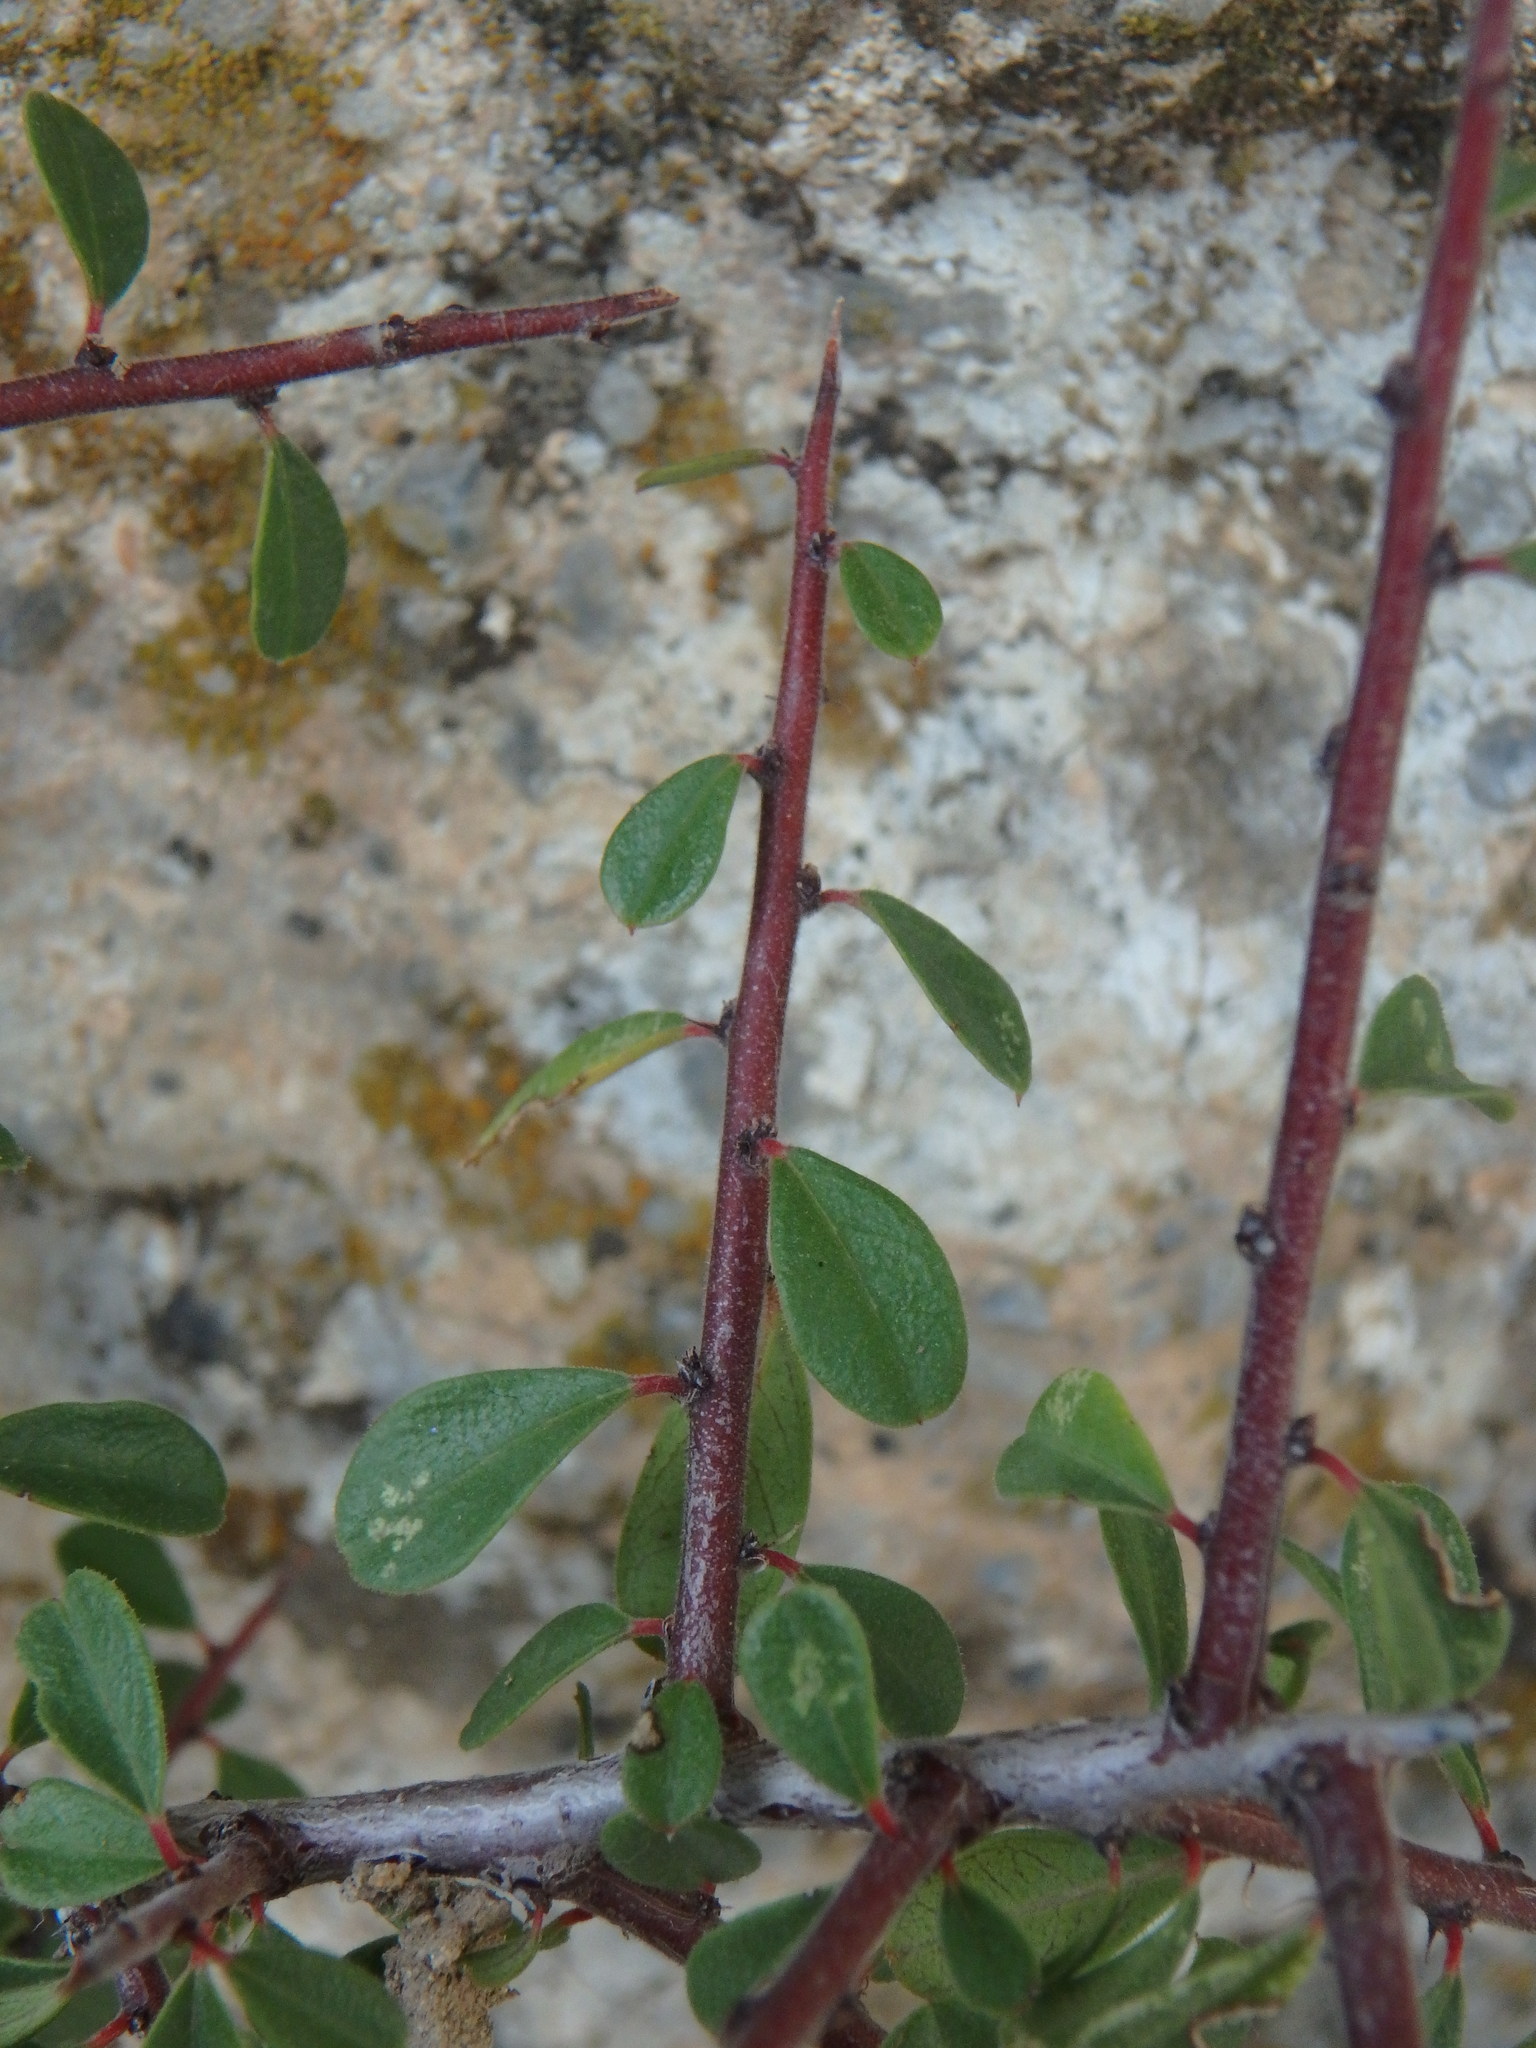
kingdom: Plantae
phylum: Tracheophyta
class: Magnoliopsida
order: Rosales
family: Rhamnaceae
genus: Rhamnus
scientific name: Rhamnus lycioides
